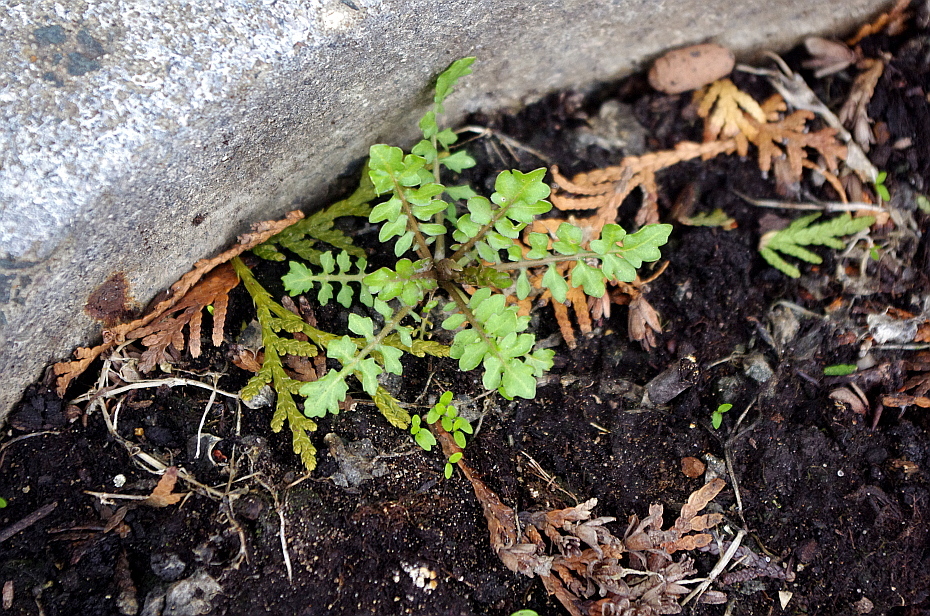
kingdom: Plantae
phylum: Tracheophyta
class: Magnoliopsida
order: Brassicales
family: Brassicaceae
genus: Rorippa
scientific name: Rorippa palustris
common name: Marsh yellow-cress
